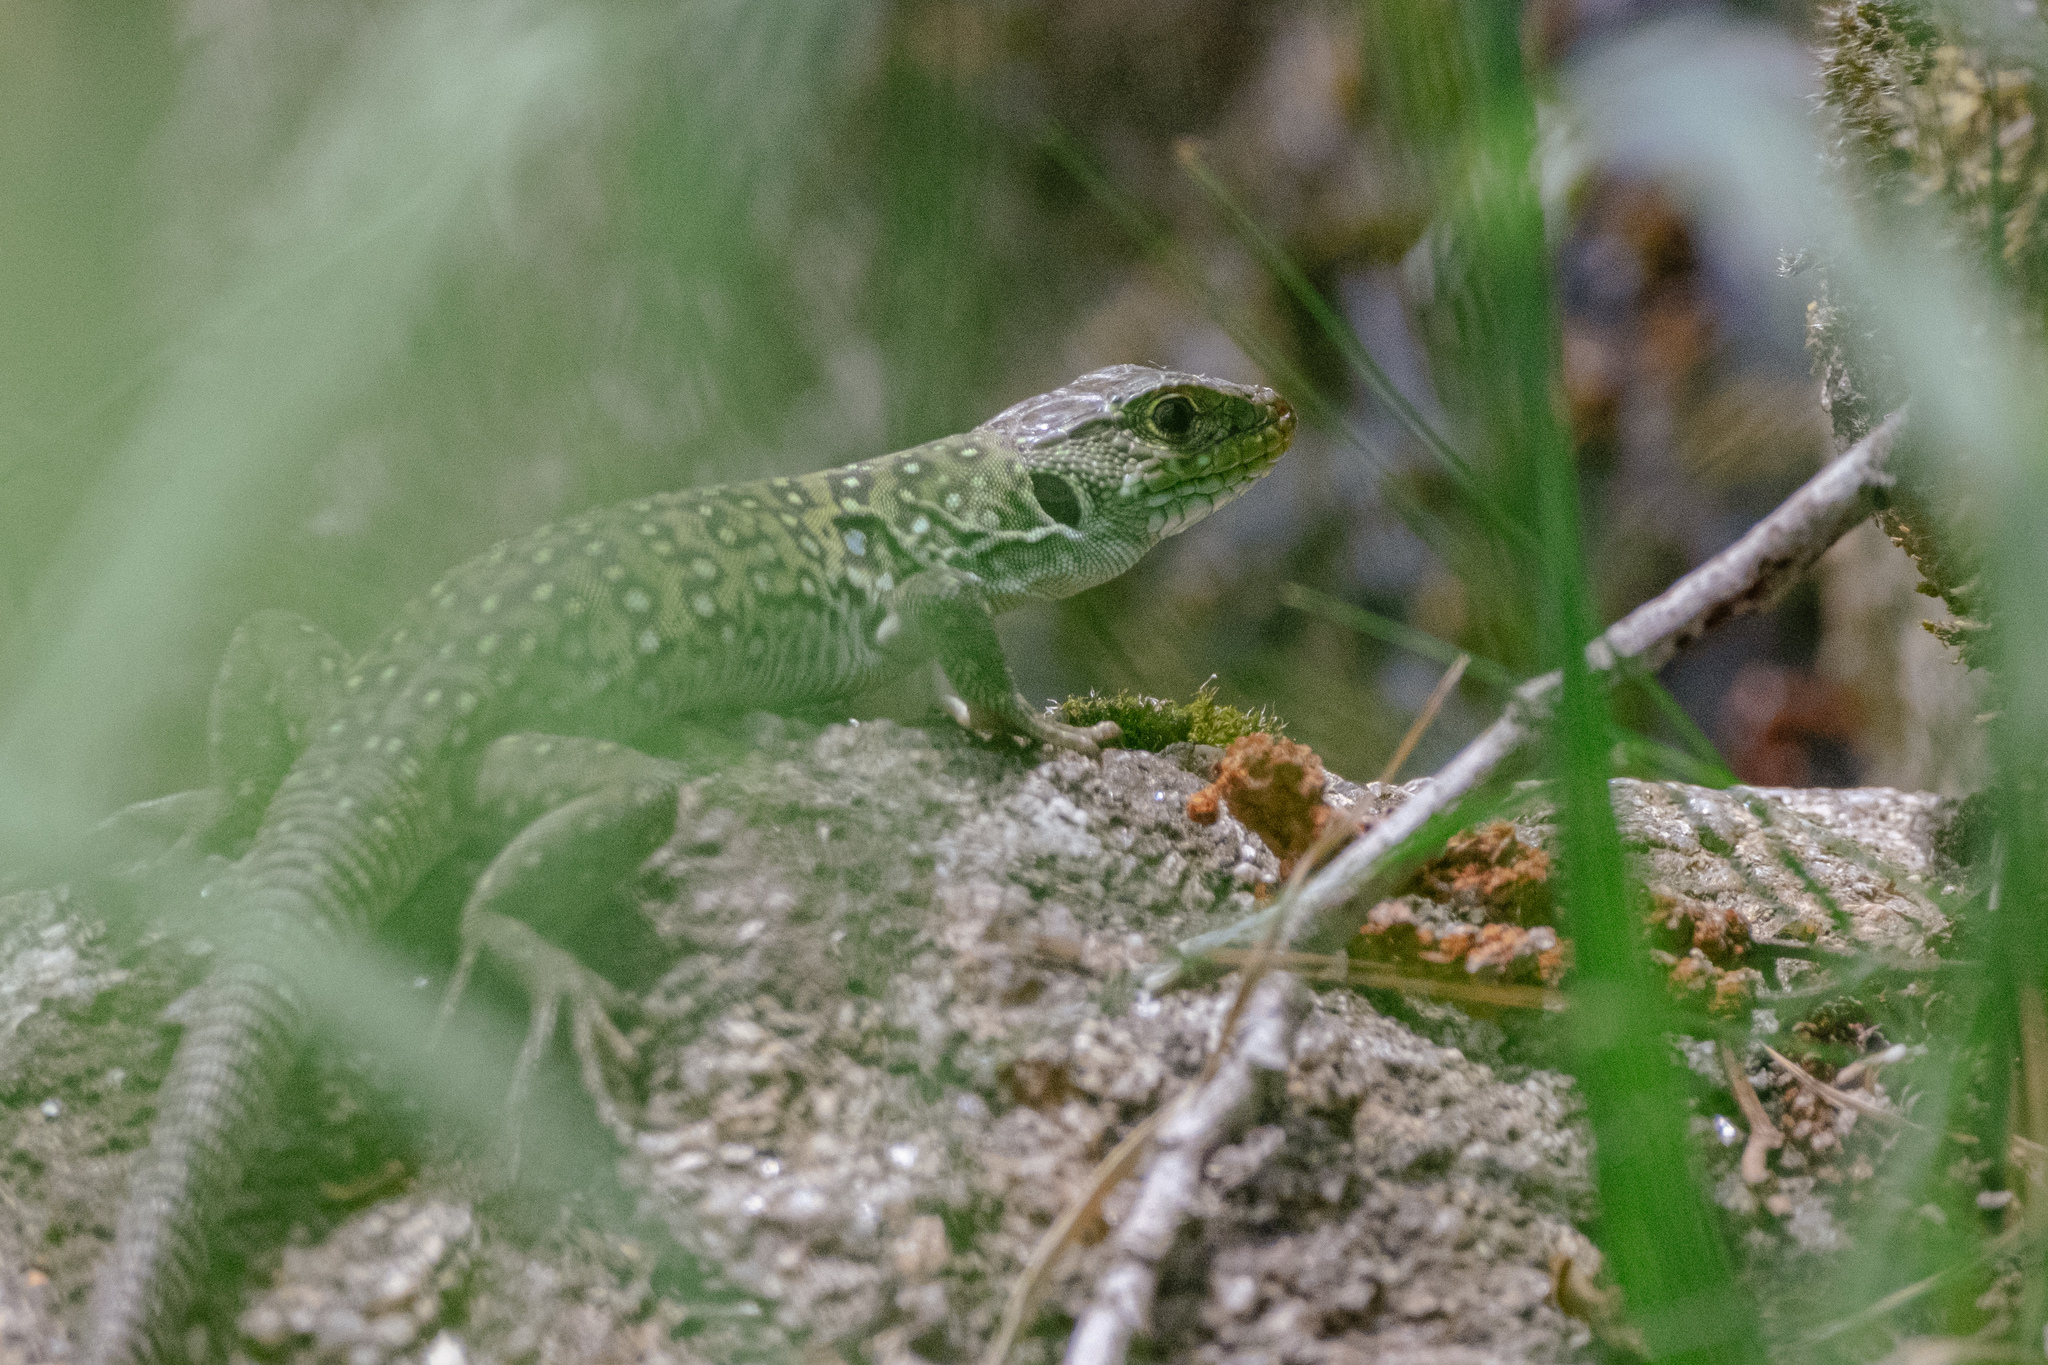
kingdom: Animalia
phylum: Chordata
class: Squamata
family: Lacertidae
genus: Timon
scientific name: Timon lepidus
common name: Ocellated lizard
